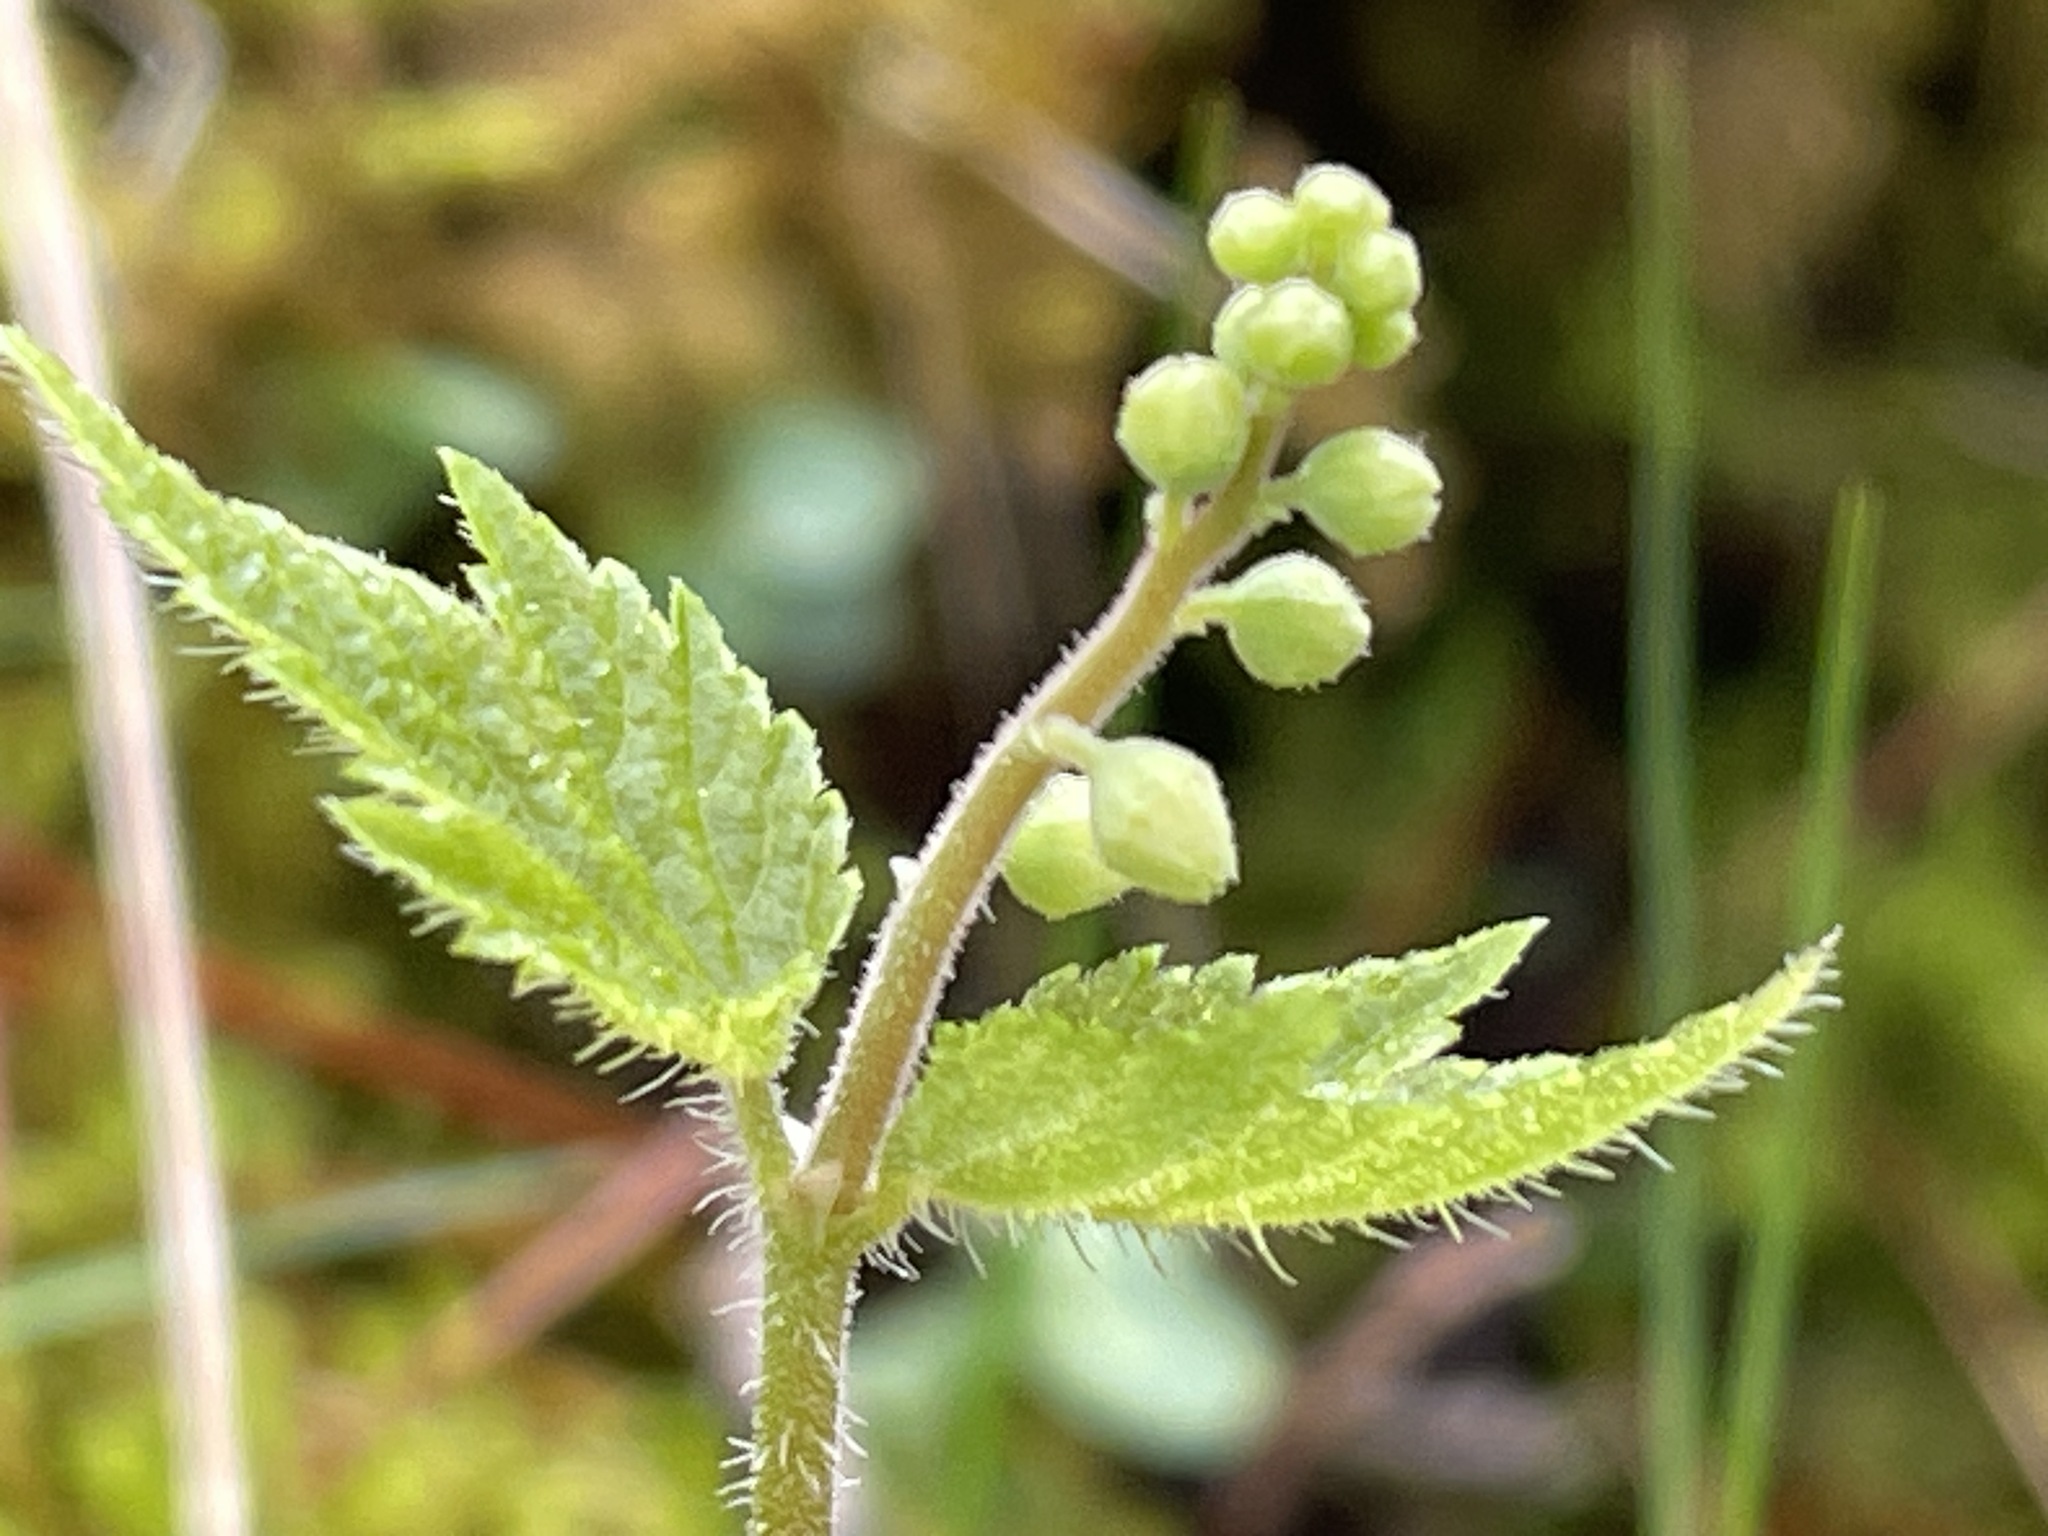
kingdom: Plantae
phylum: Tracheophyta
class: Magnoliopsida
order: Saxifragales
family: Saxifragaceae
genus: Mitella
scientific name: Mitella diphylla
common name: Coolwort
